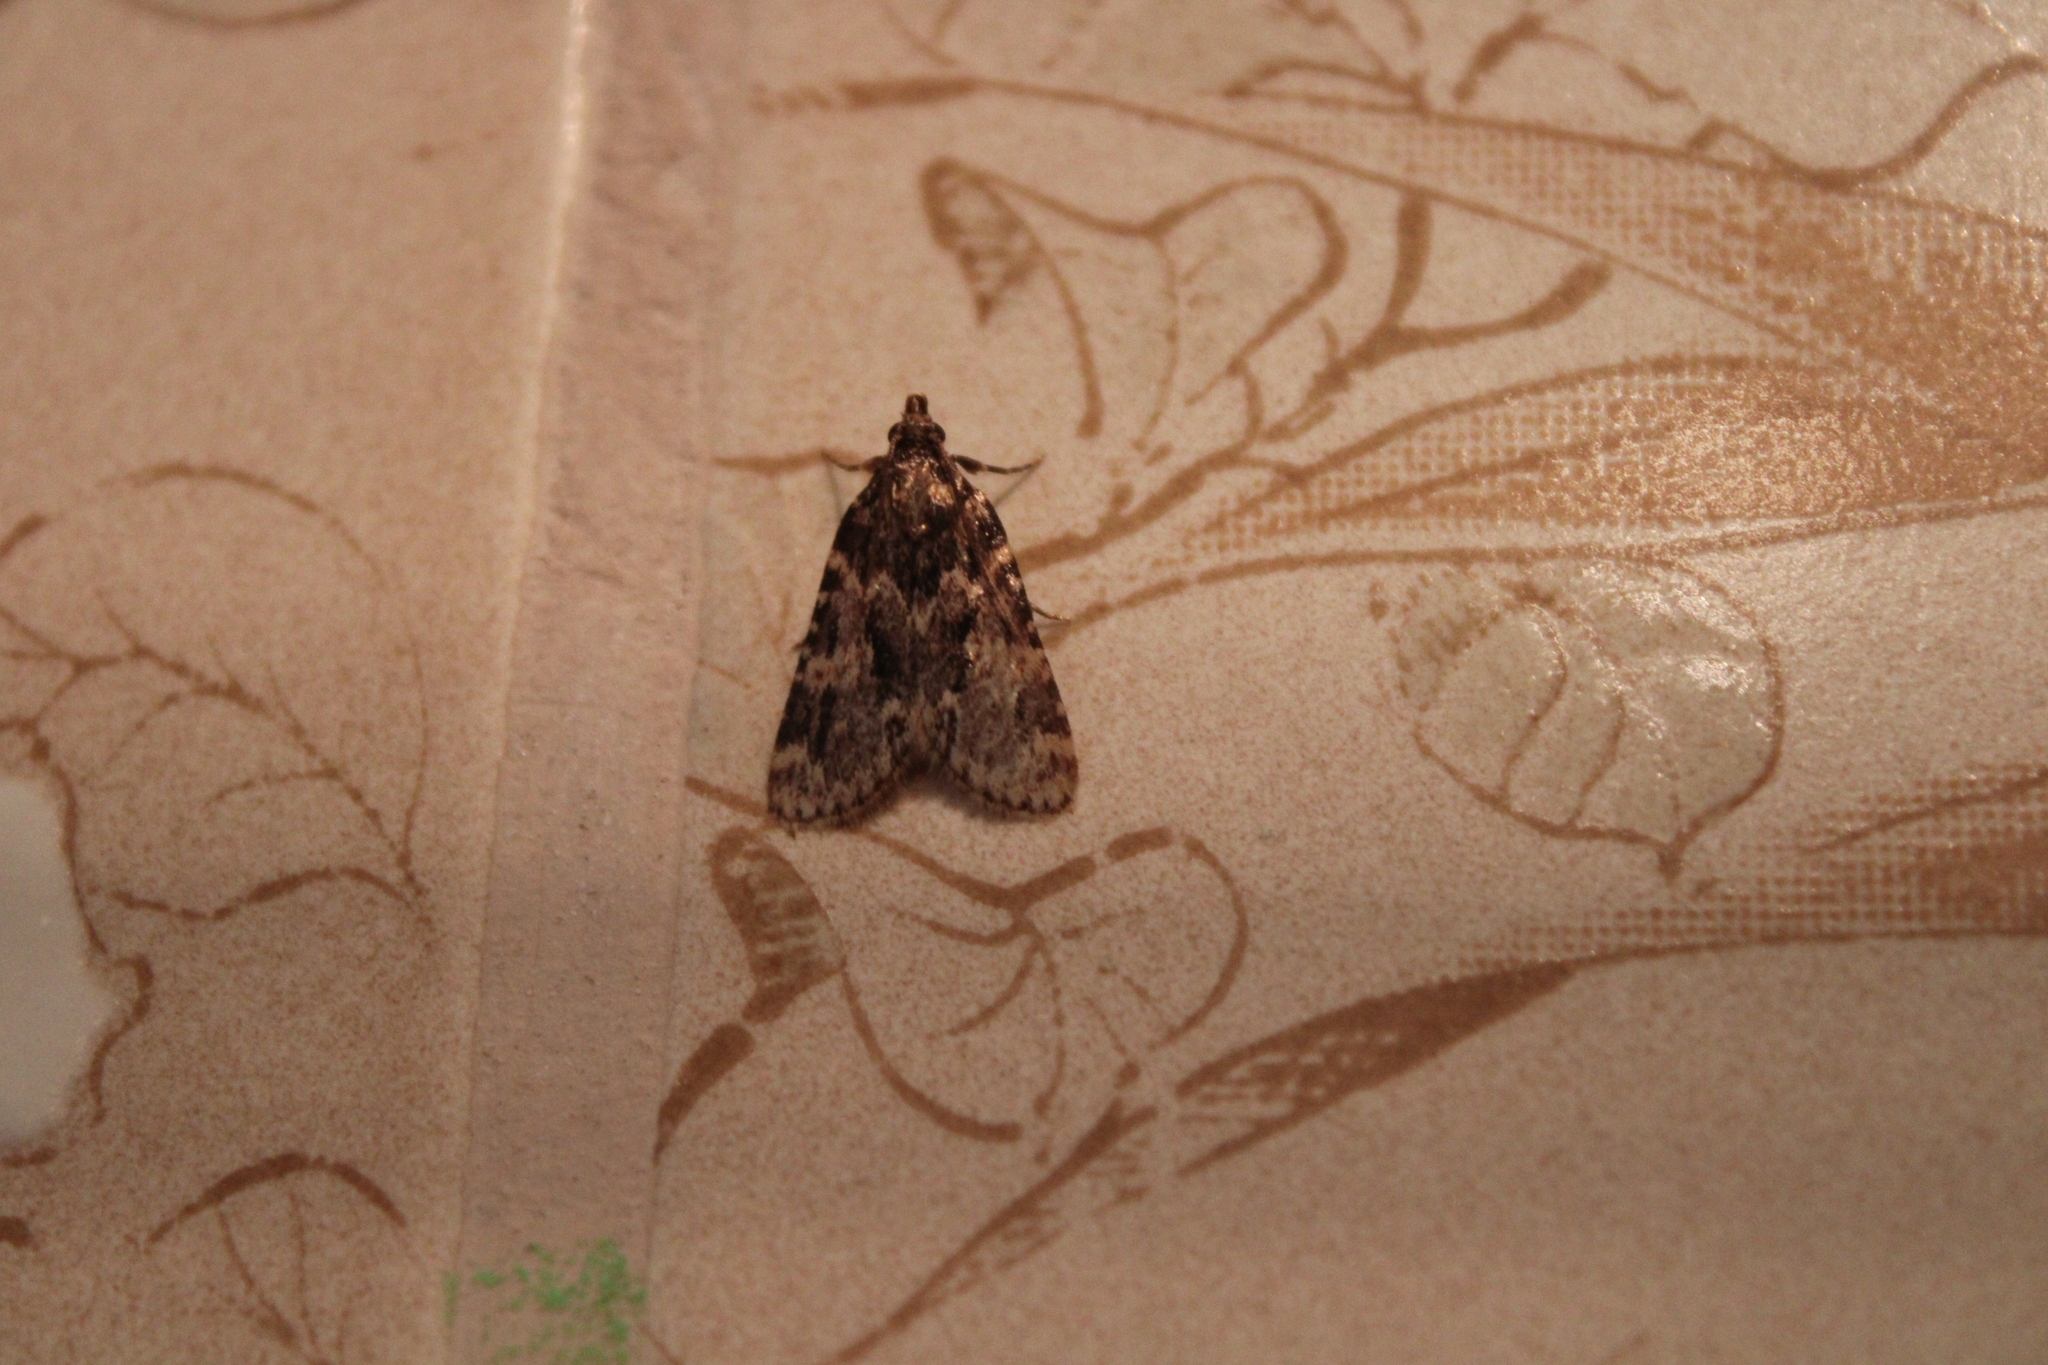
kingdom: Animalia
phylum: Arthropoda
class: Insecta
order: Lepidoptera
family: Pyralidae
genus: Aglossa
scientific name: Aglossa caprealis
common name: Small tabby
